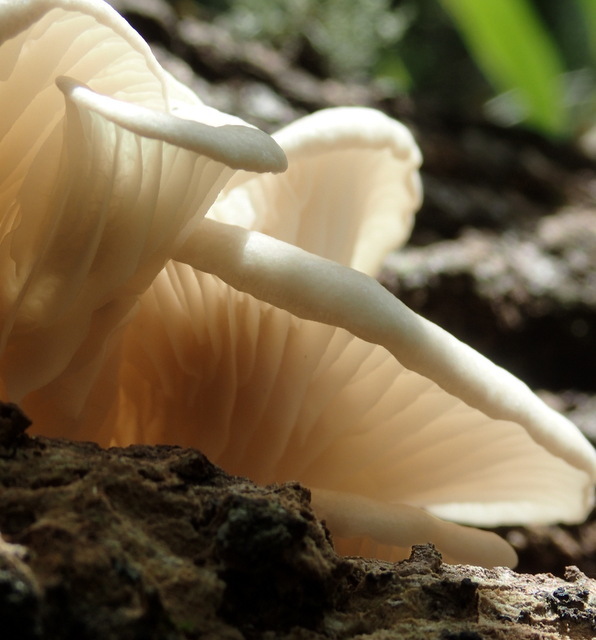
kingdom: Fungi
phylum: Basidiomycota
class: Agaricomycetes
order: Agaricales
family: Pleurotaceae
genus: Pleurotus
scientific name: Pleurotus pulmonarius
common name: Pale oyster
